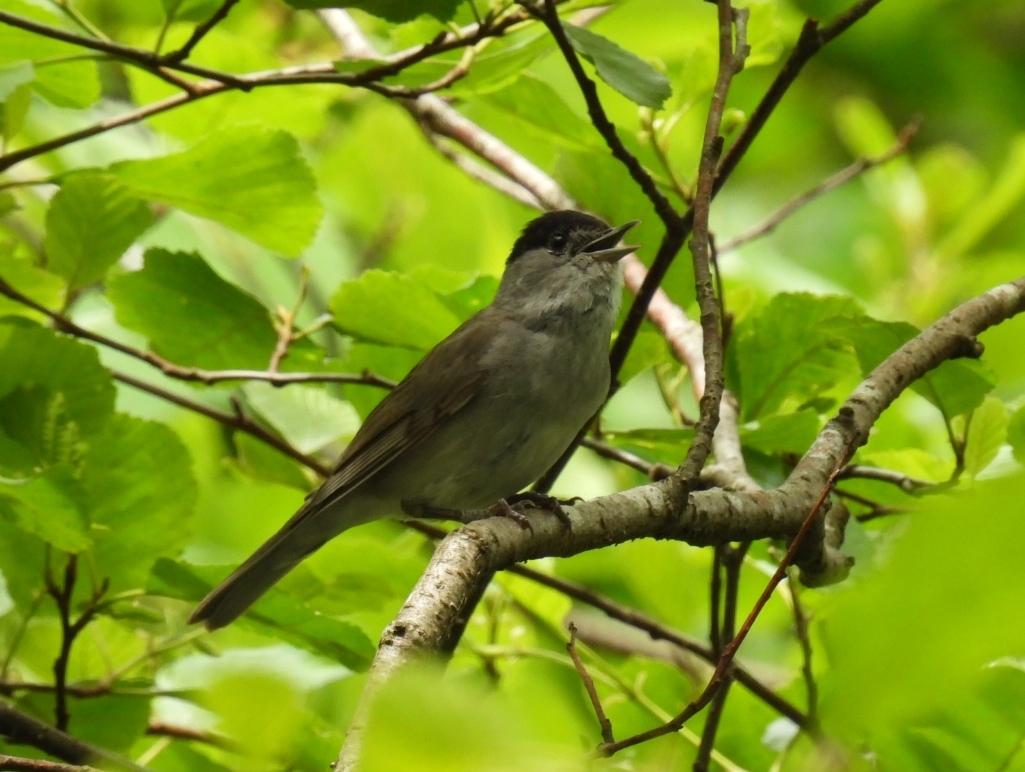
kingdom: Animalia
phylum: Chordata
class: Aves
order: Passeriformes
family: Sylviidae
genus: Sylvia
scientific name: Sylvia atricapilla
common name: Eurasian blackcap
